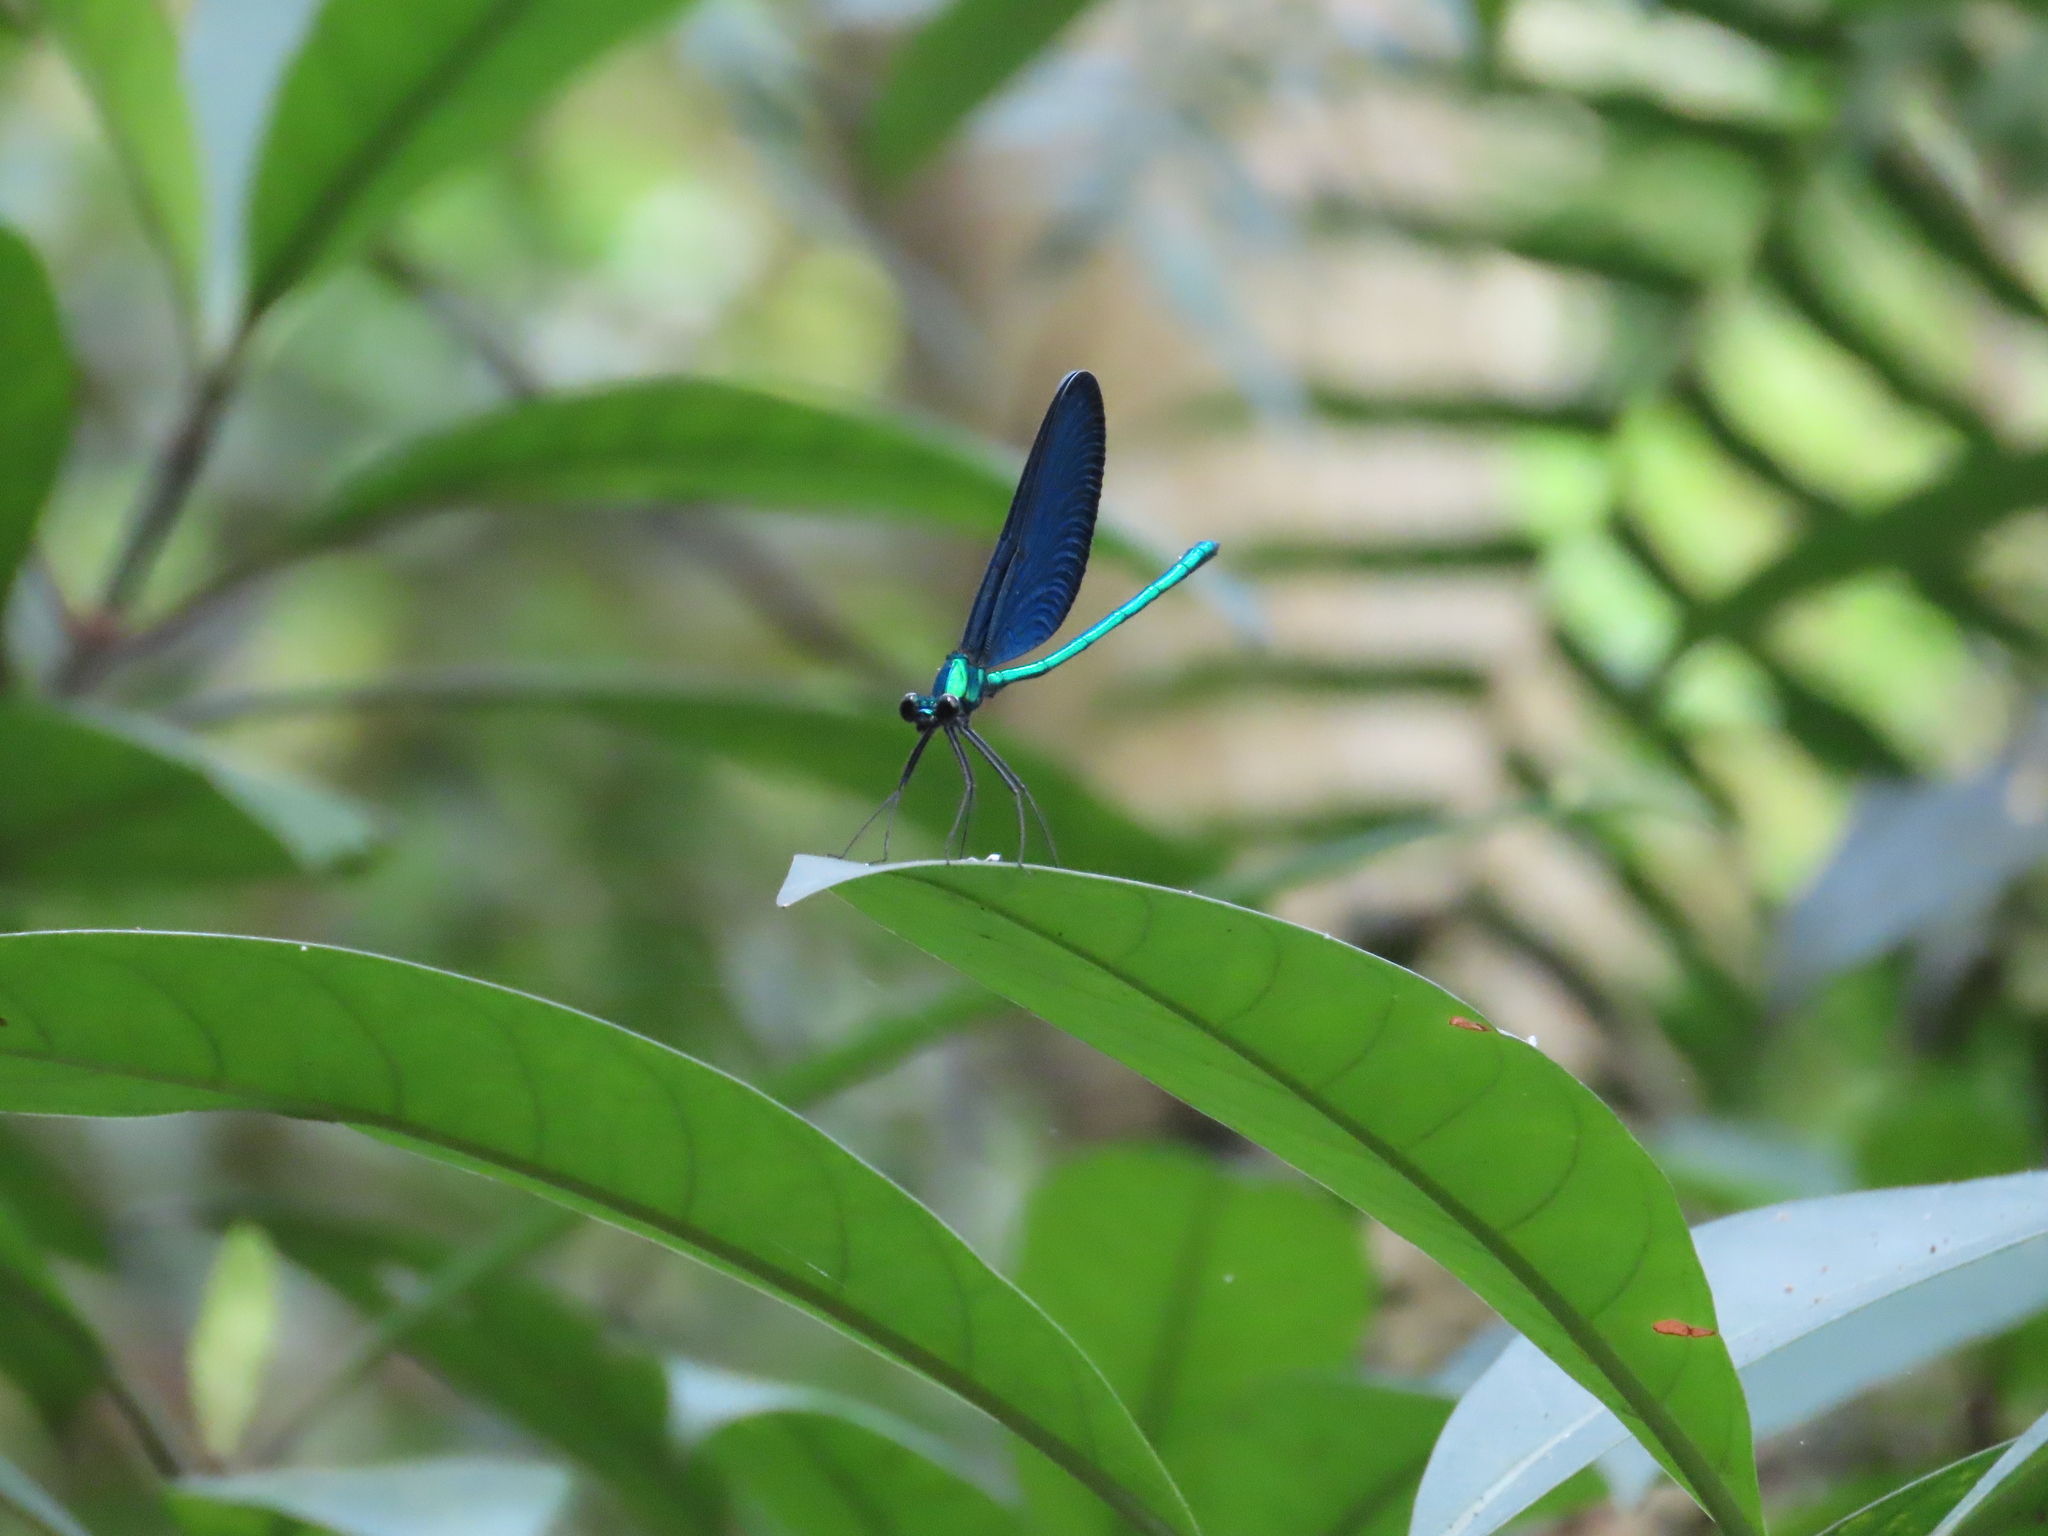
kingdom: Animalia
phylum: Arthropoda
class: Insecta
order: Odonata
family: Calopterygidae
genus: Matrona
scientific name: Matrona cyanoptera
